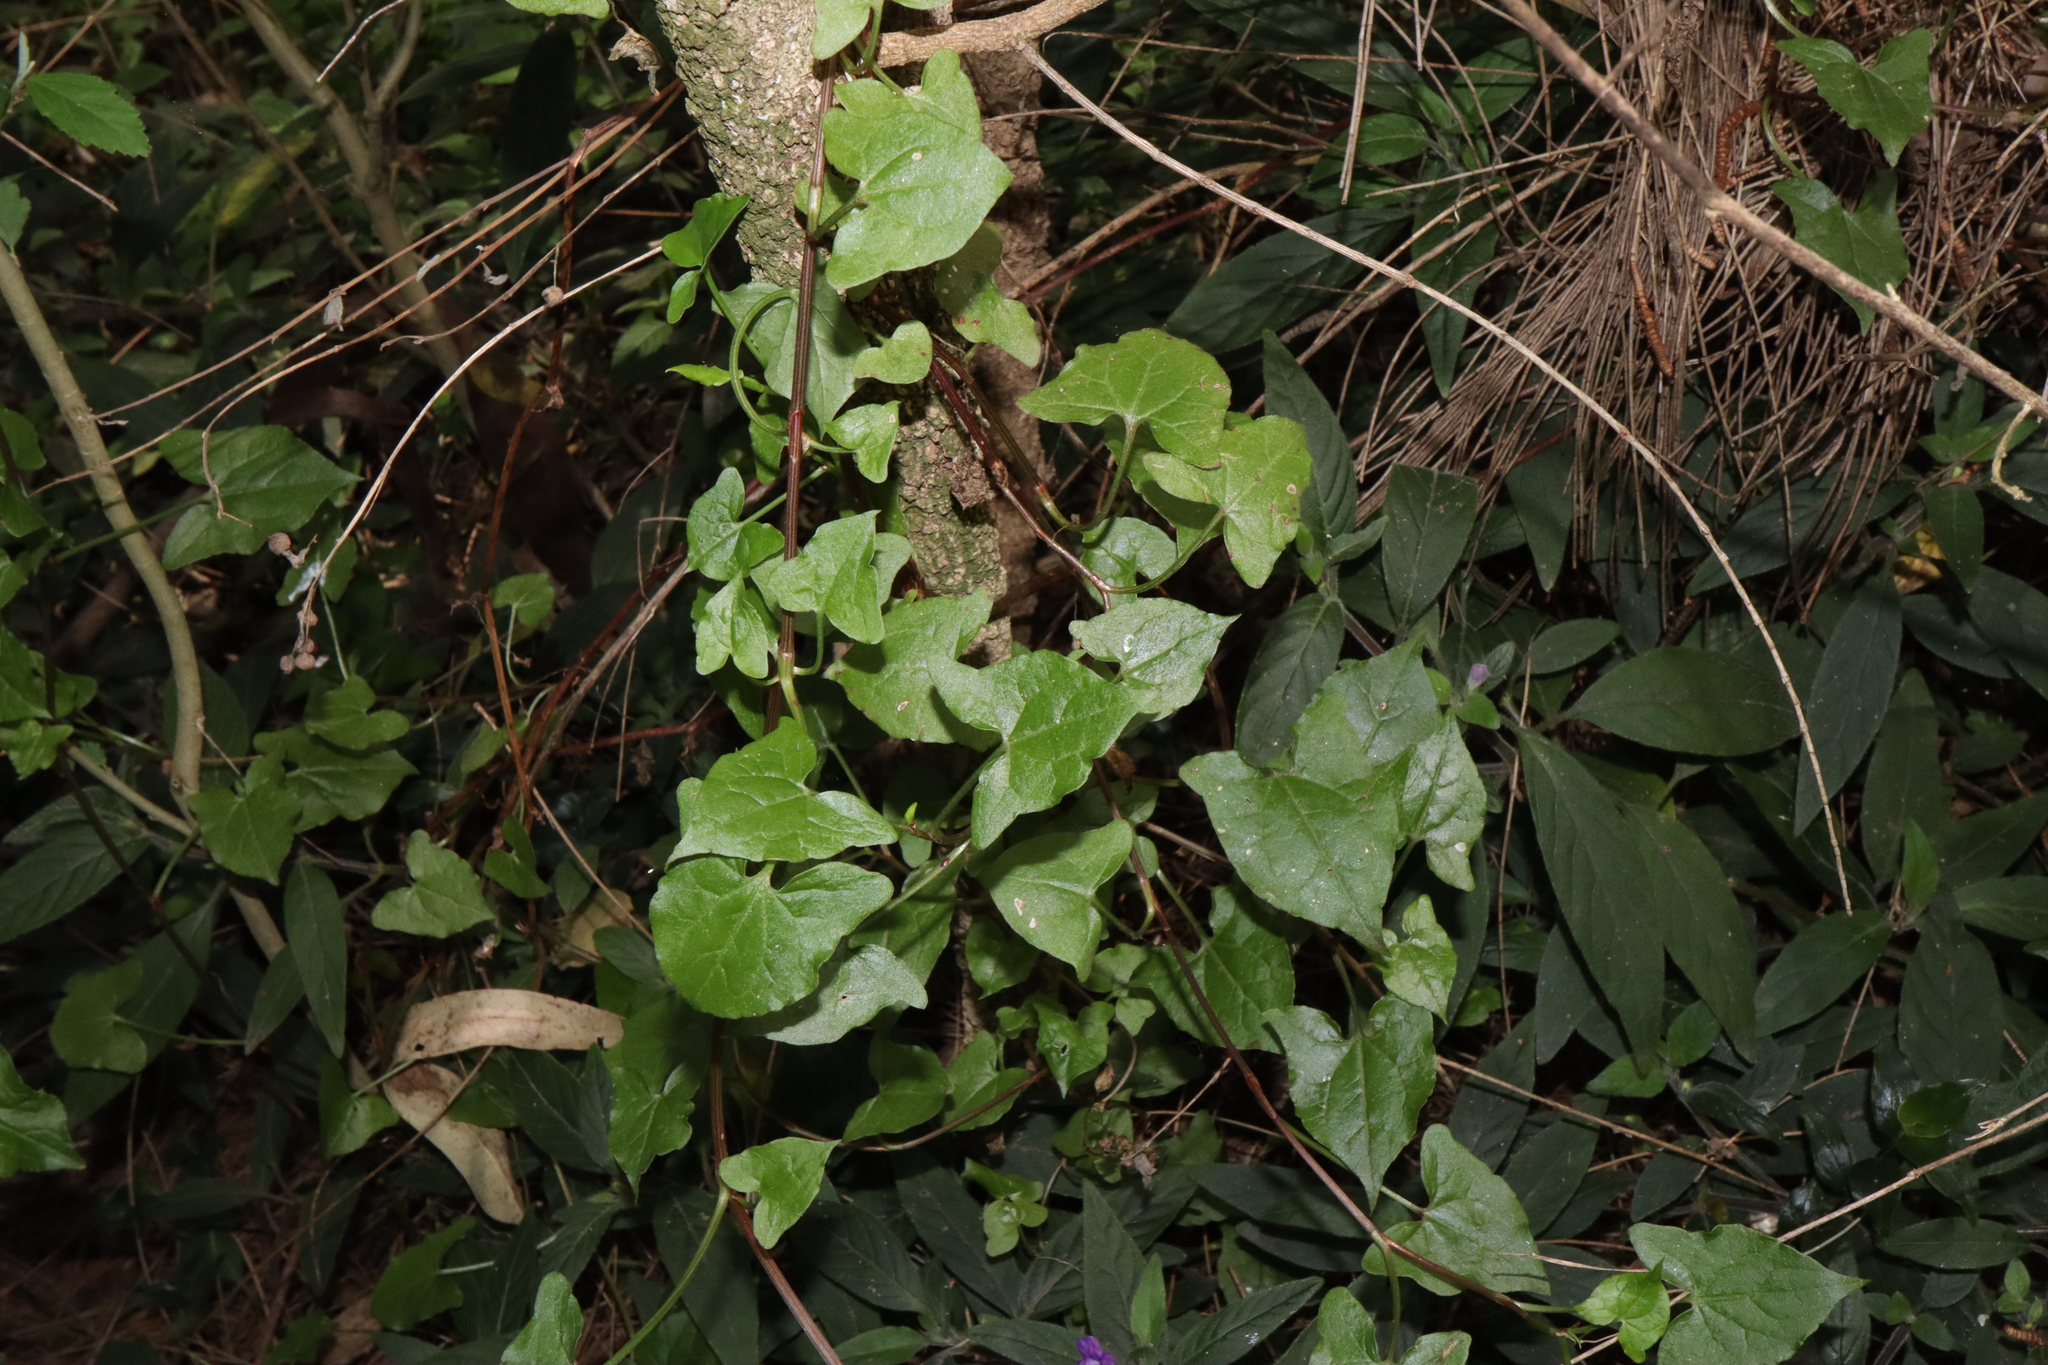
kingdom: Plantae
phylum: Tracheophyta
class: Magnoliopsida
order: Caryophyllales
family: Polygonaceae
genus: Rumex
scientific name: Rumex sagittatus
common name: Climbing dock
